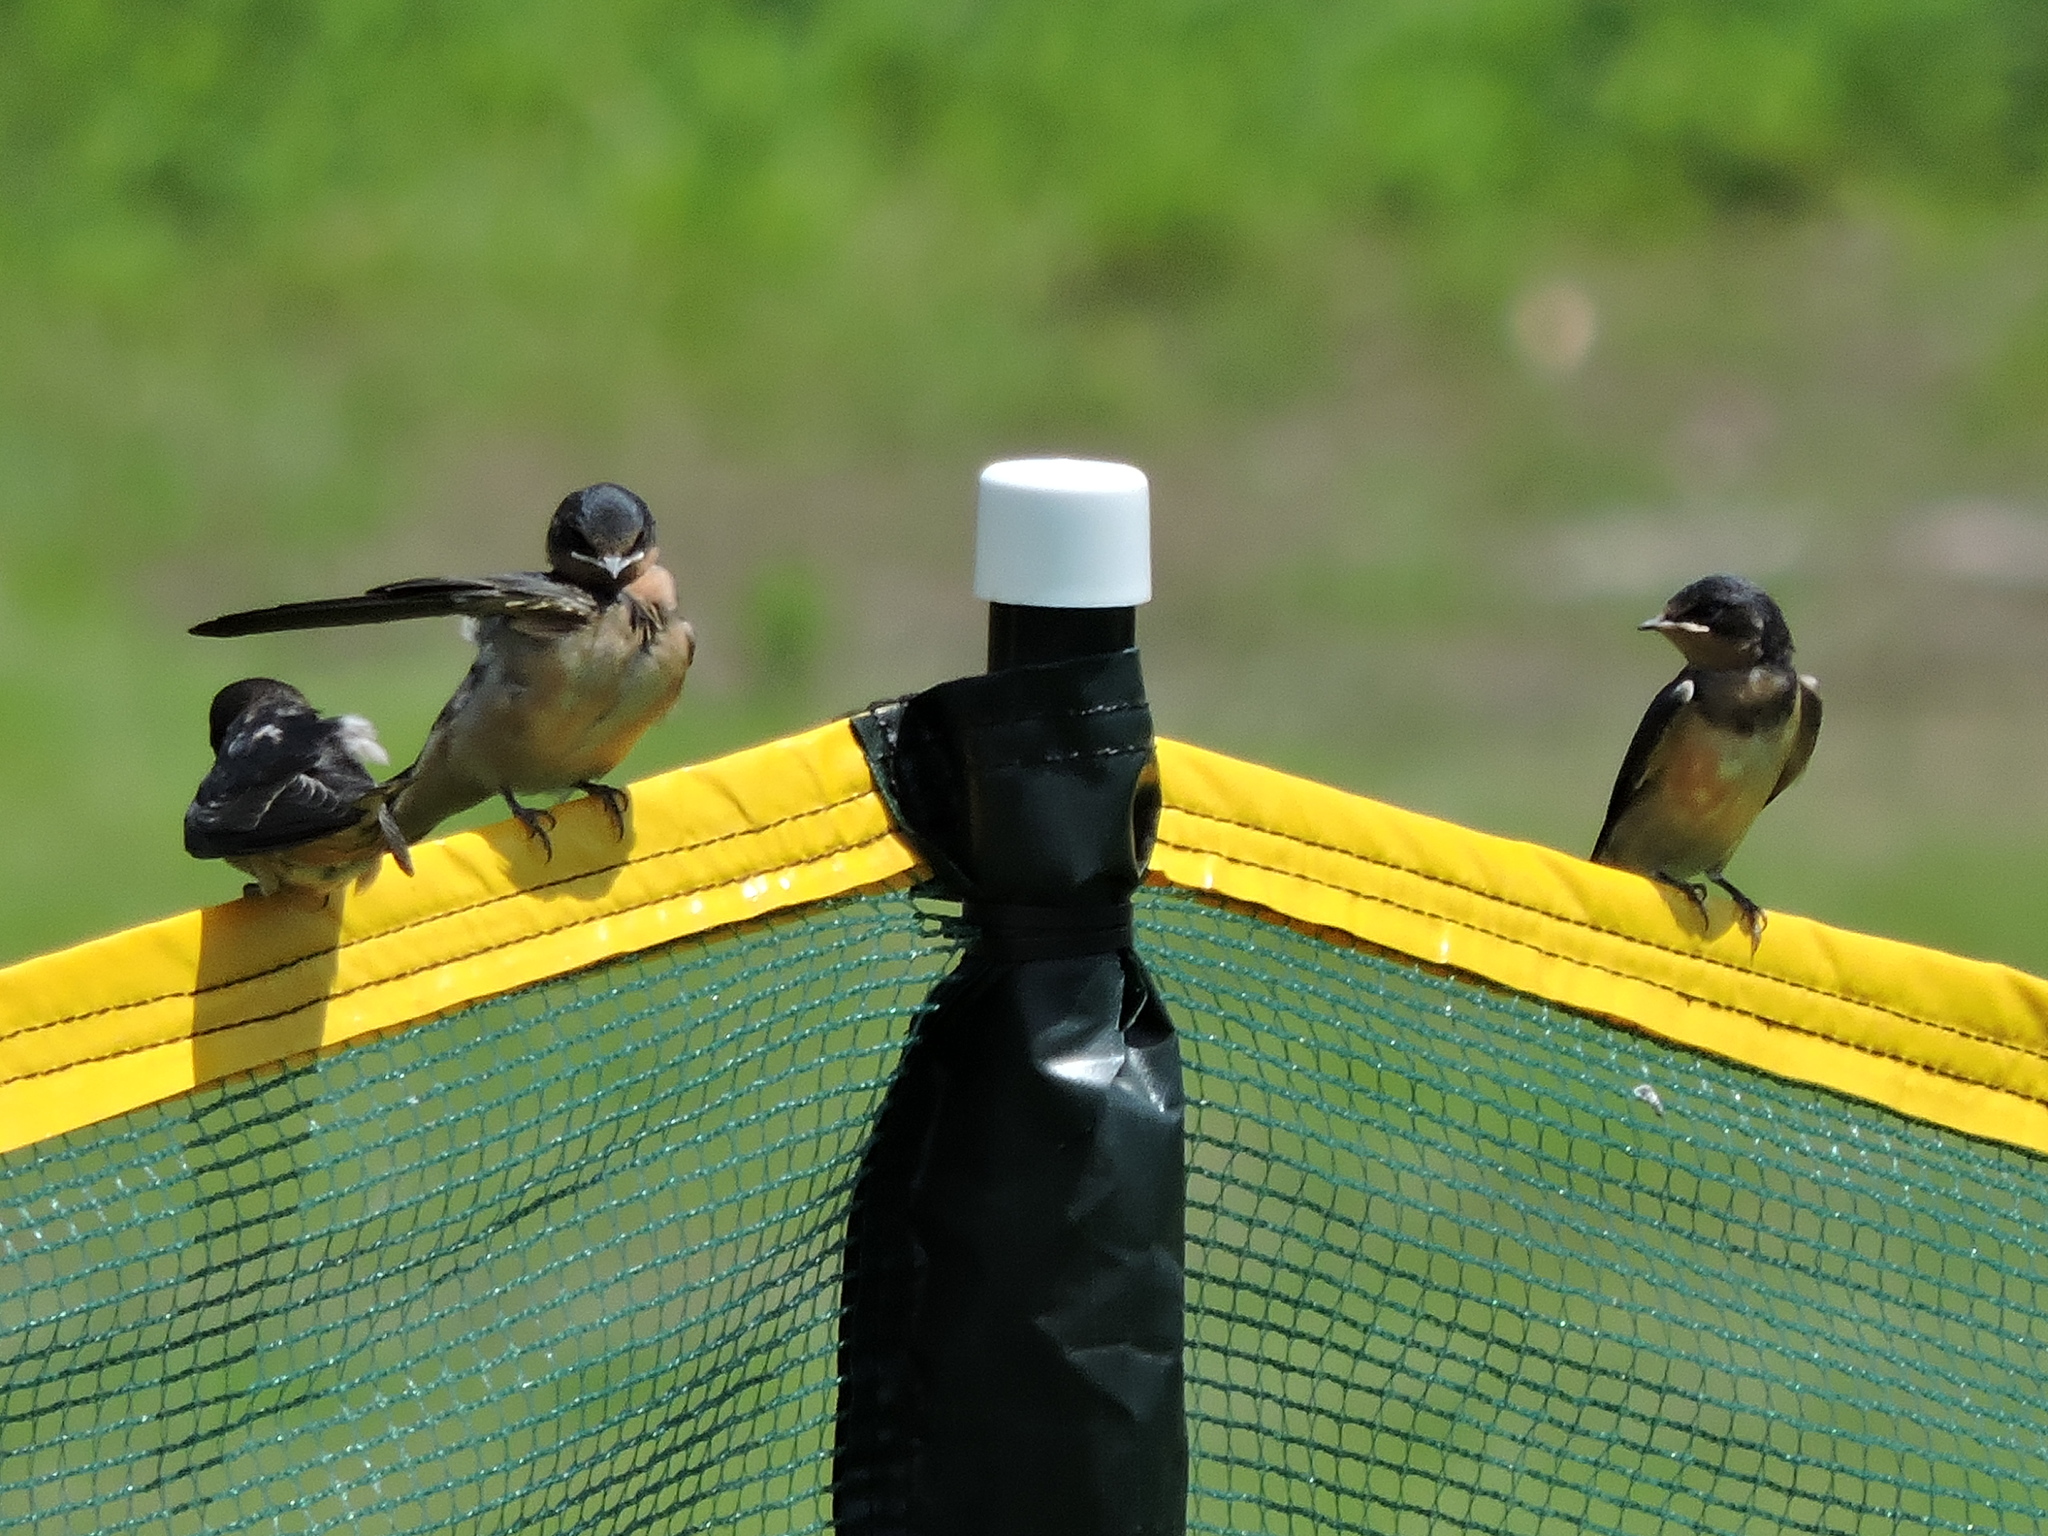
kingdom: Animalia
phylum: Chordata
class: Aves
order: Passeriformes
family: Hirundinidae
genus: Hirundo
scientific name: Hirundo rustica
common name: Barn swallow
